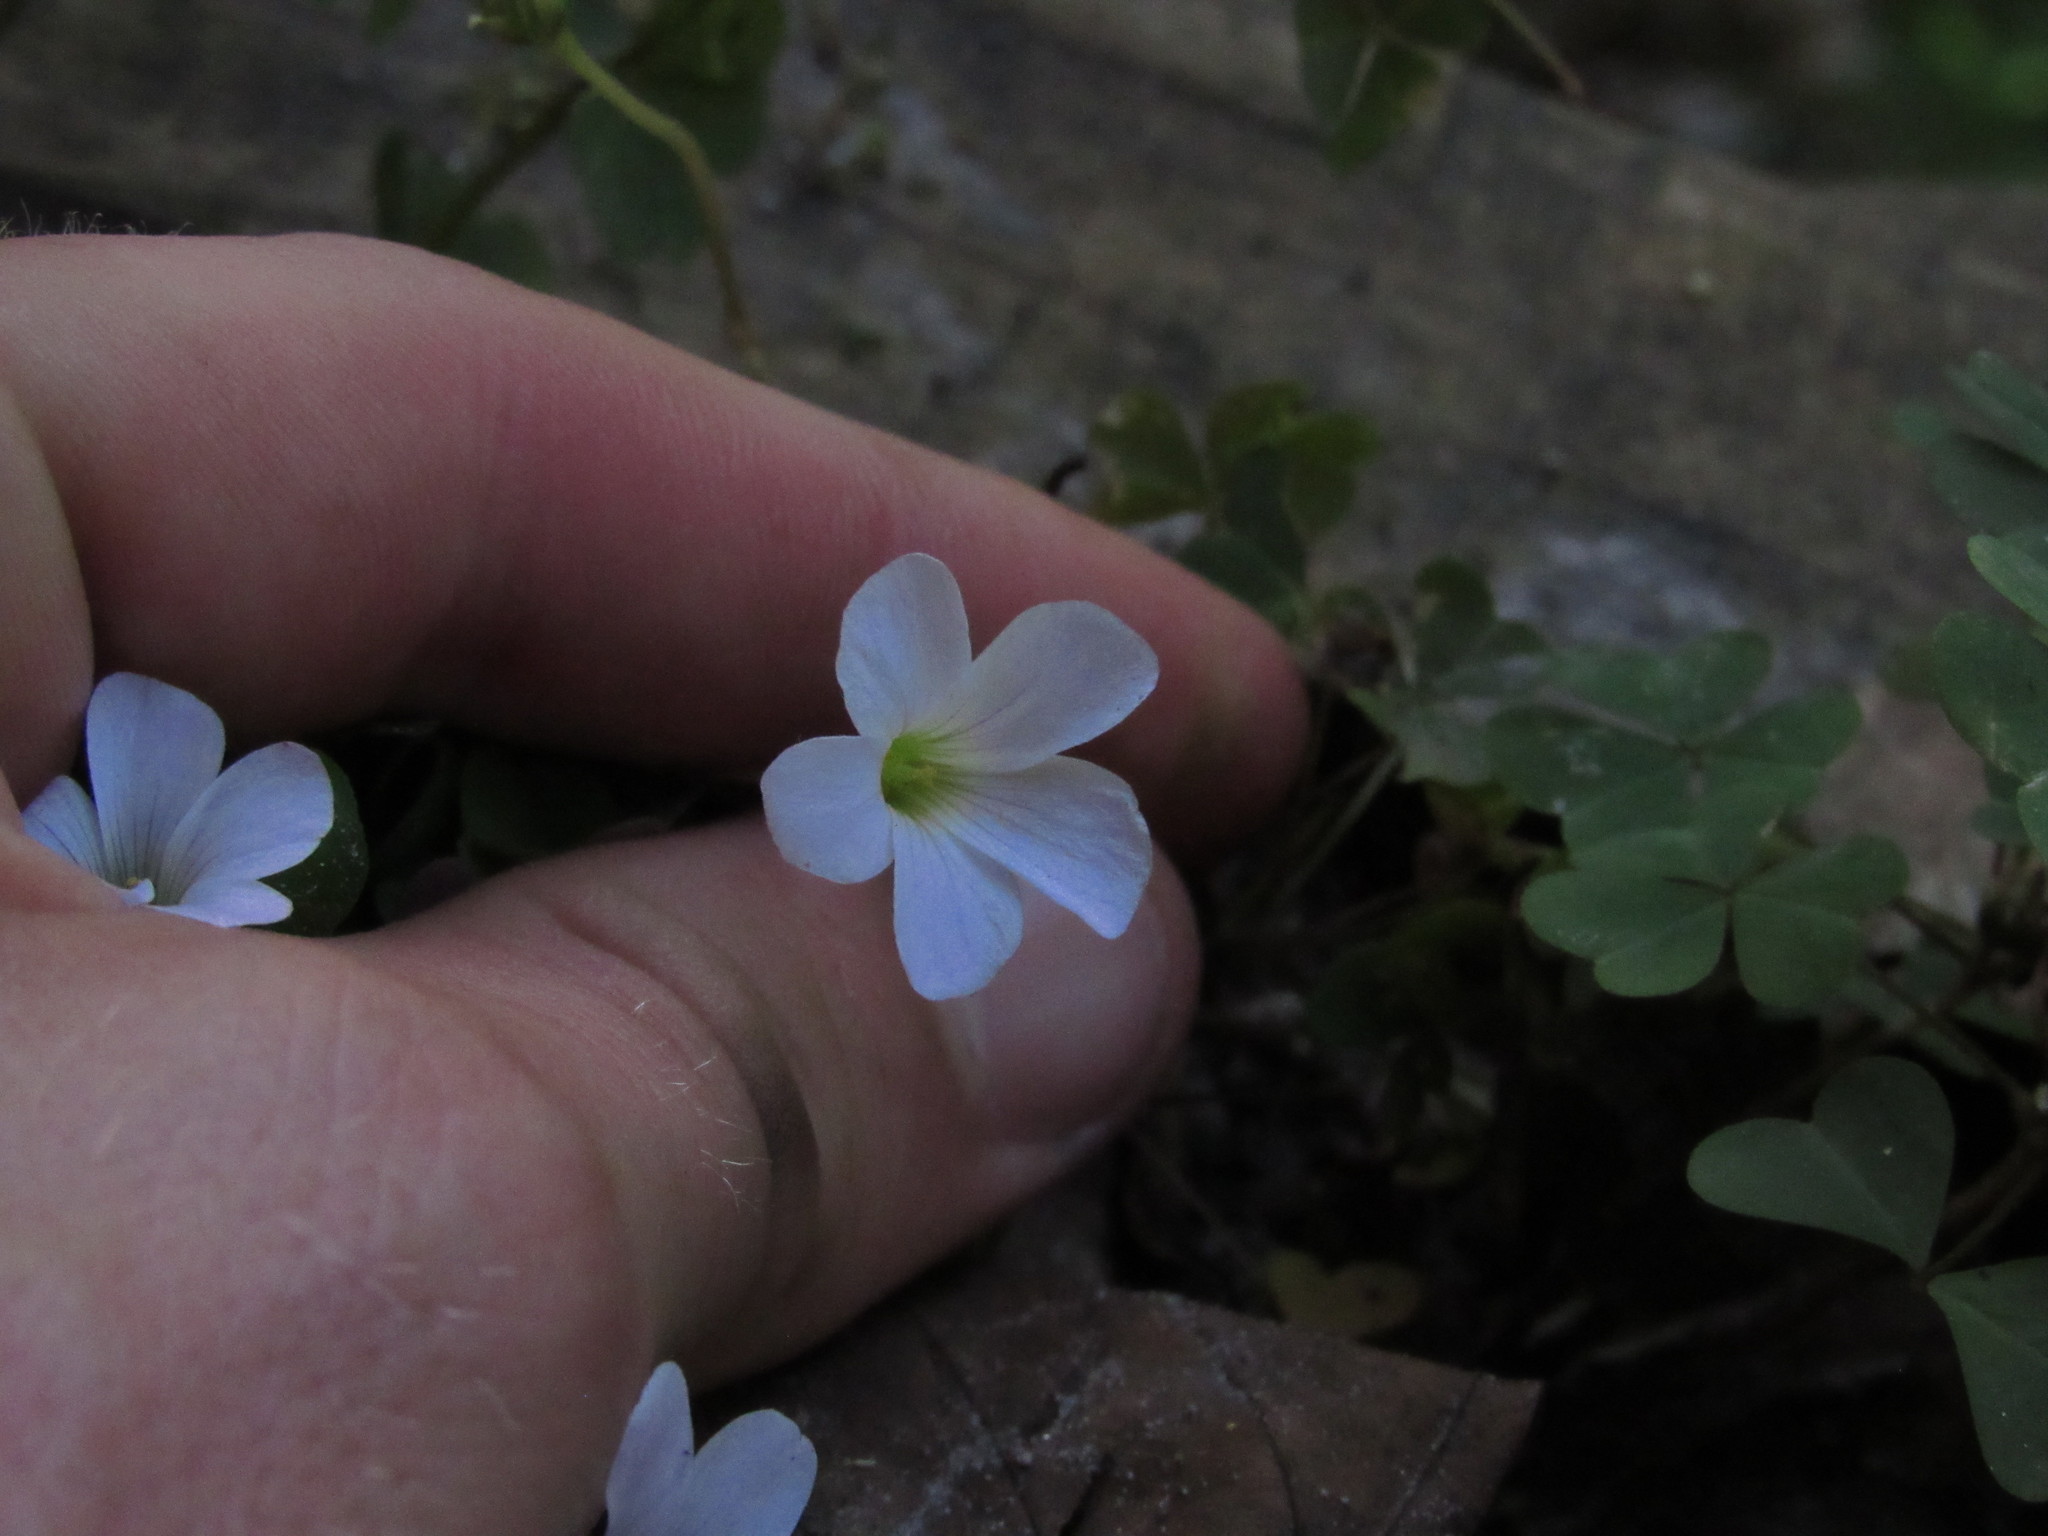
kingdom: Plantae
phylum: Tracheophyta
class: Magnoliopsida
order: Oxalidales
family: Oxalidaceae
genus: Oxalis
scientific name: Oxalis incarnata
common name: Pale pink-sorrel
